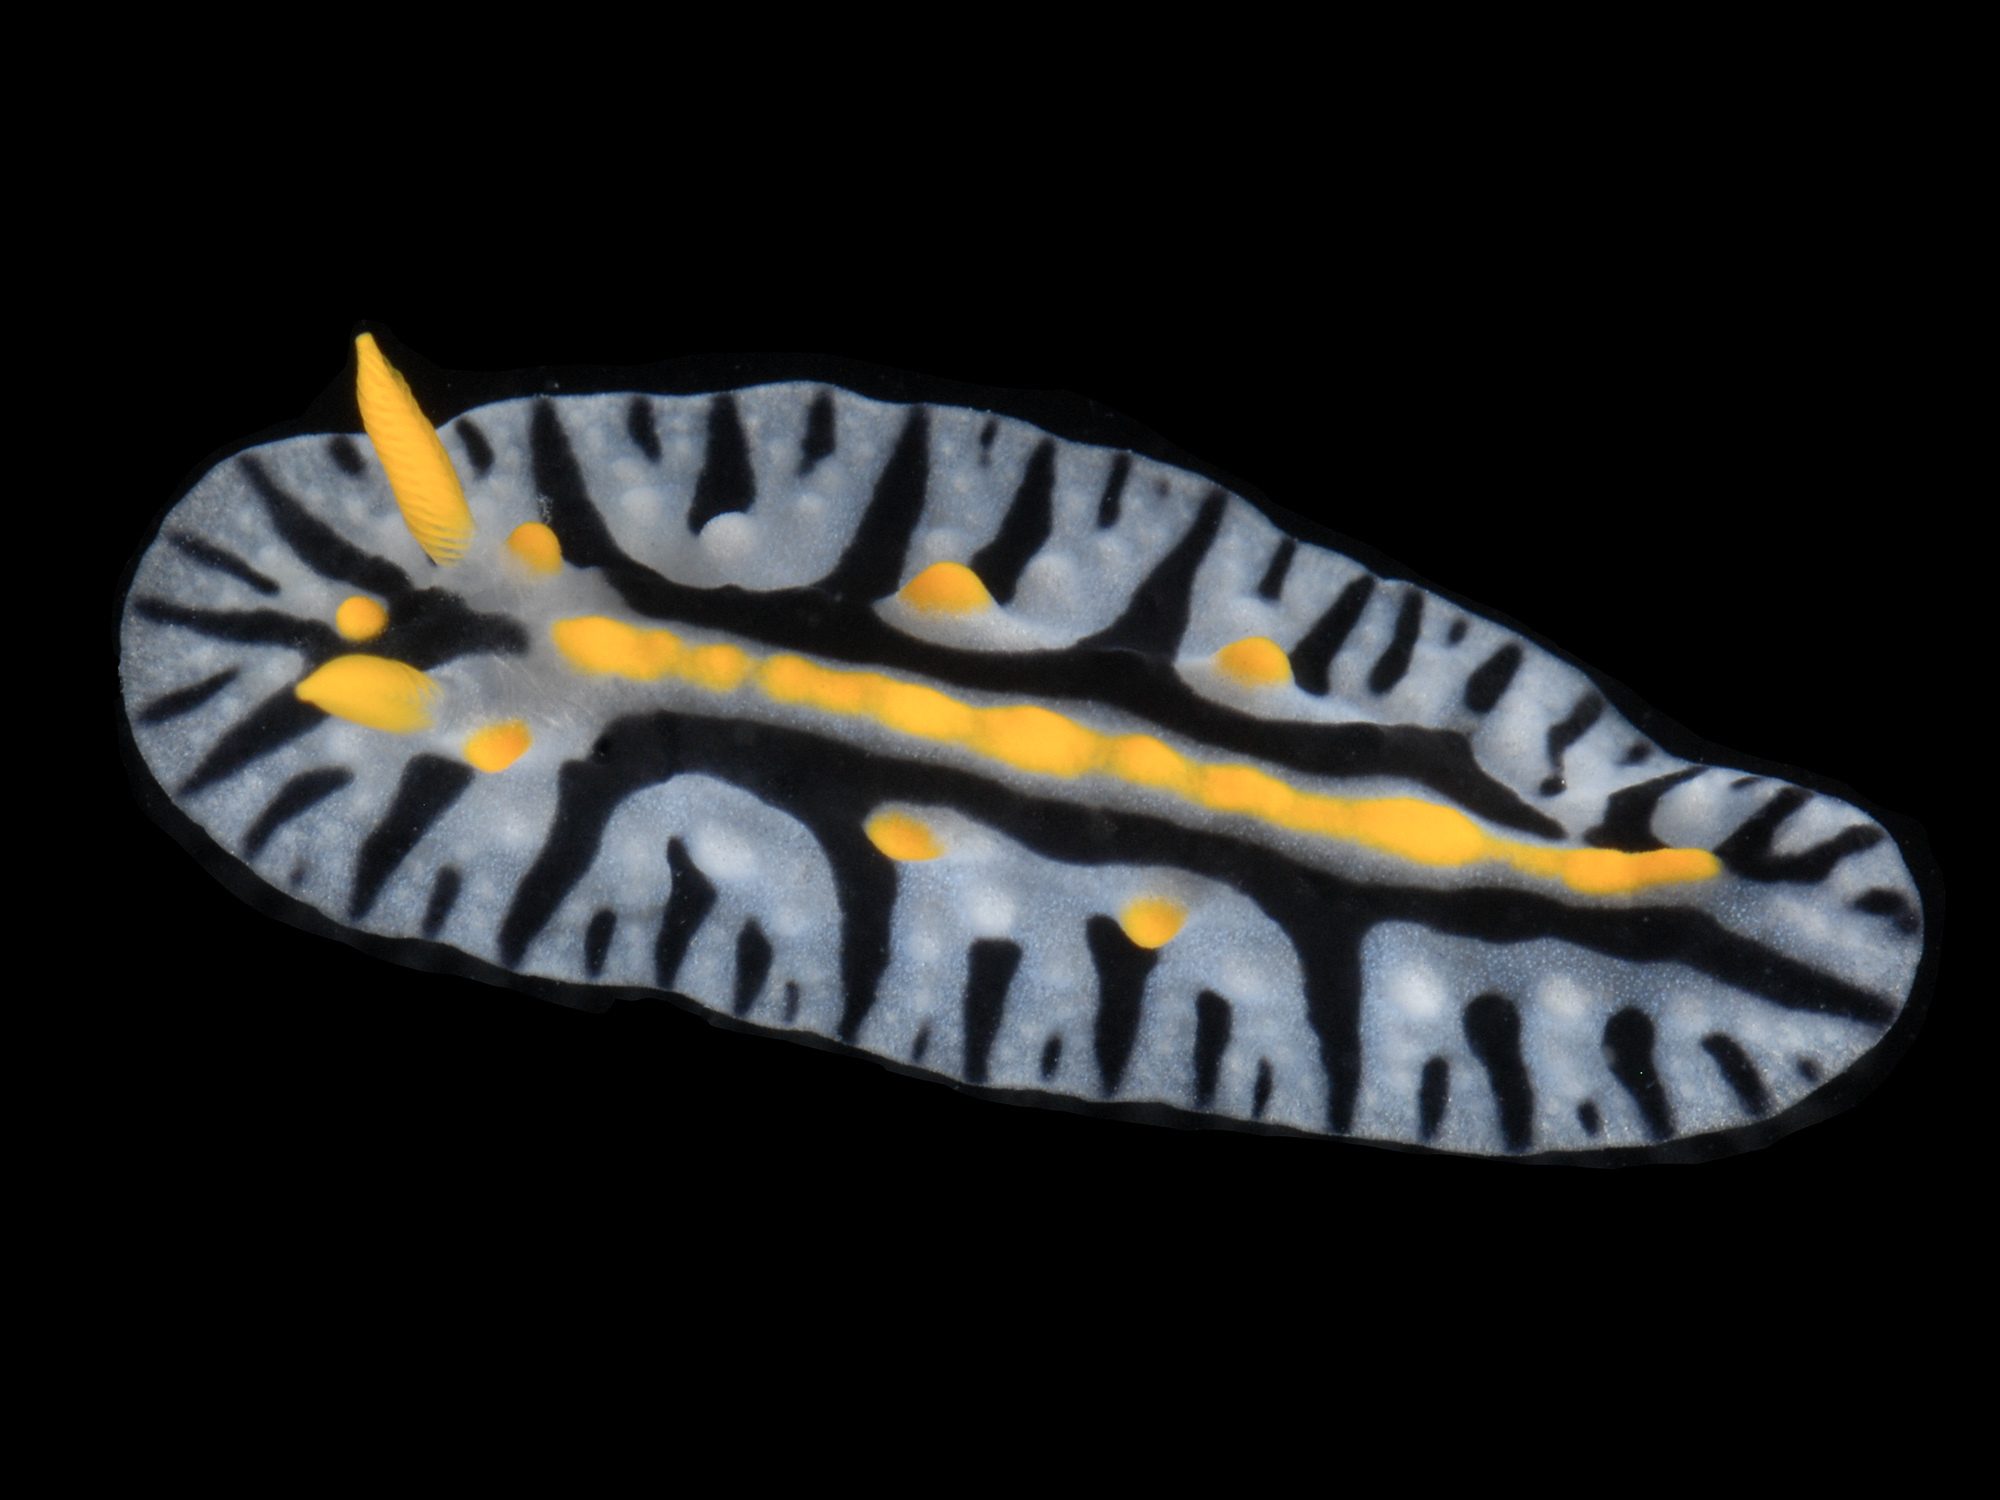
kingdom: Animalia
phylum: Mollusca
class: Gastropoda
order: Nudibranchia
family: Phyllidiidae
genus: Phyllidia
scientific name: Phyllidia marindica
